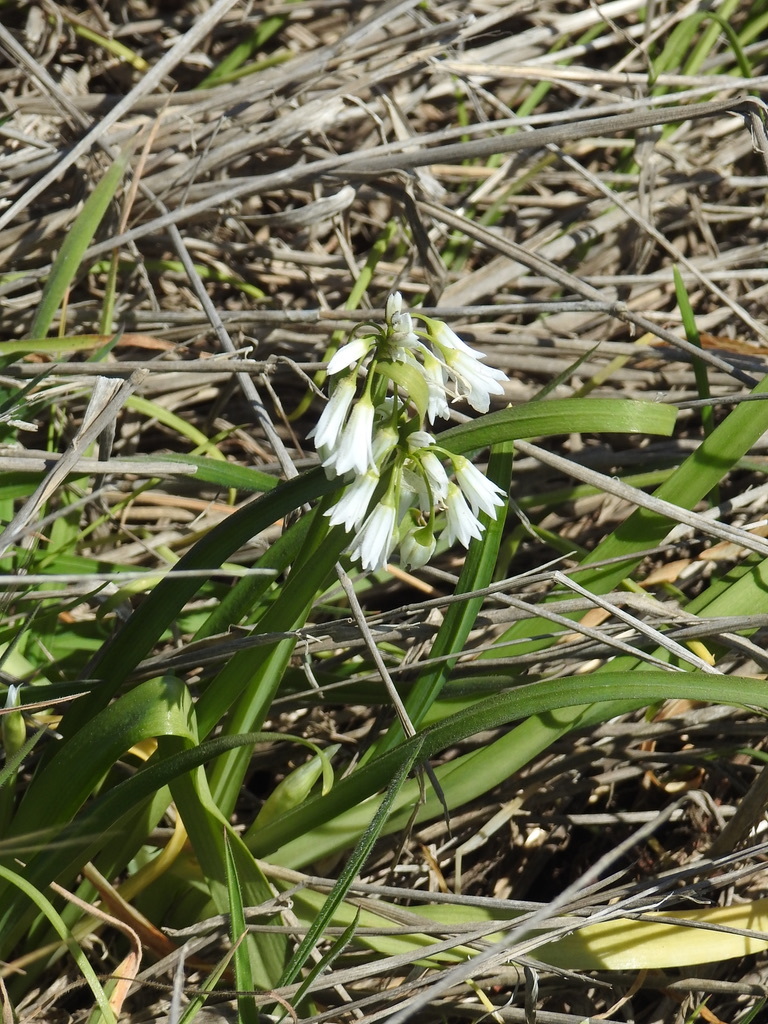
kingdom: Plantae
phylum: Tracheophyta
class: Liliopsida
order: Asparagales
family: Amaryllidaceae
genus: Allium
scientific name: Allium triquetrum
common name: Three-cornered garlic
